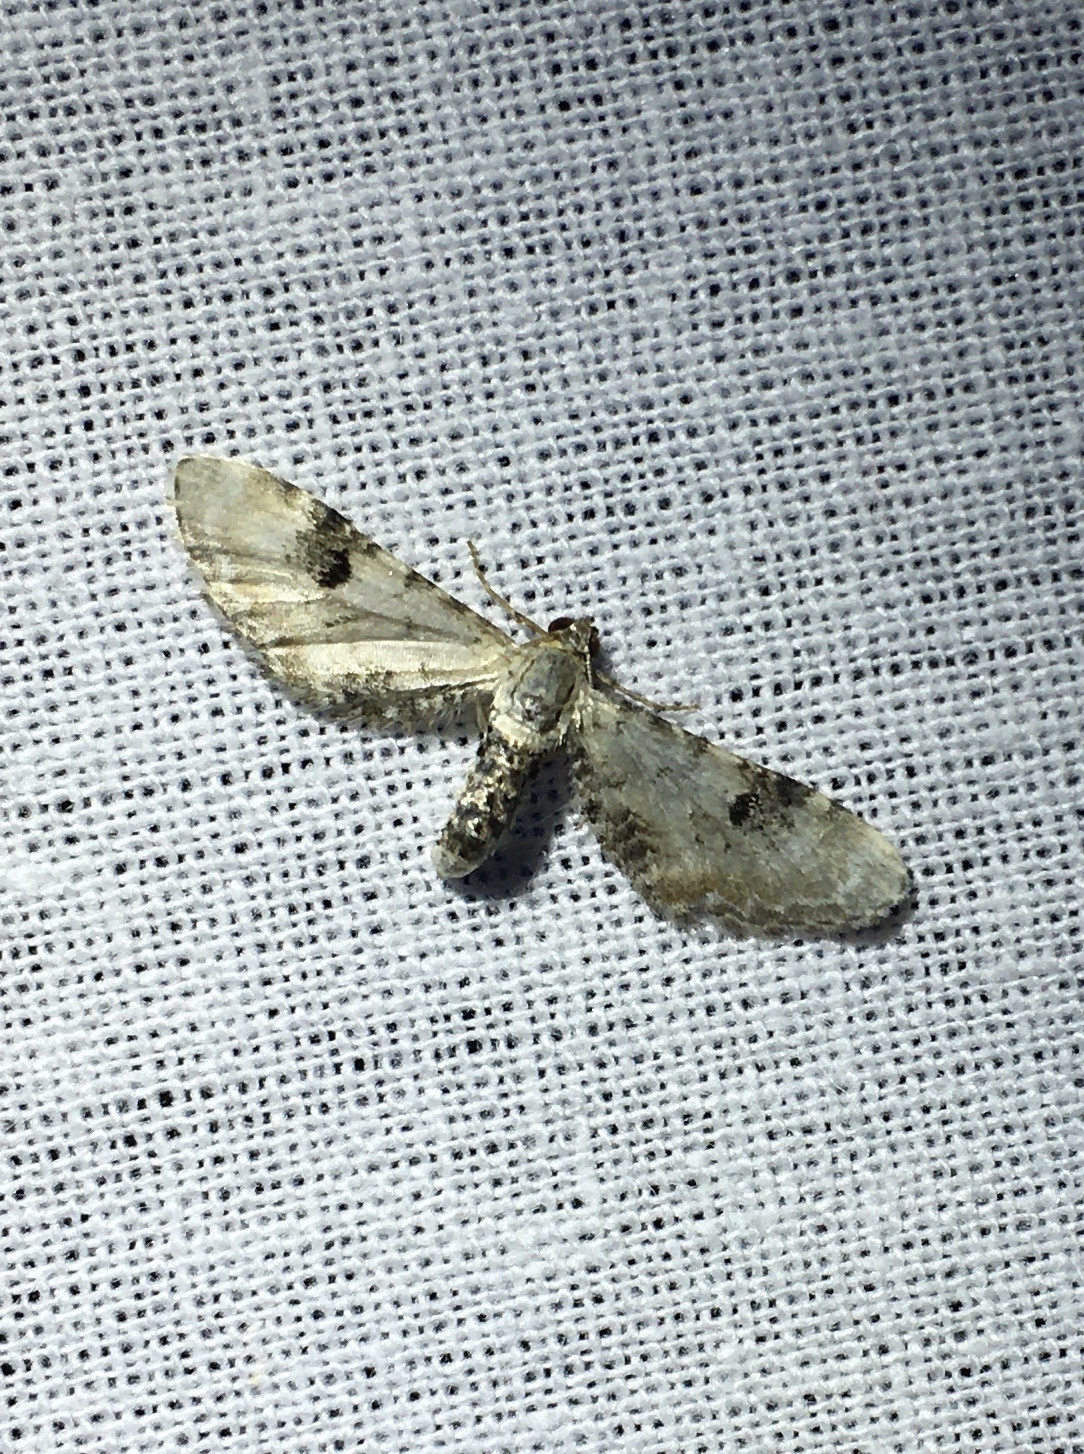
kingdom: Animalia
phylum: Arthropoda
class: Insecta
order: Lepidoptera
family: Geometridae
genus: Eupithecia
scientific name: Eupithecia centaureata
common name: Lime-speck pug
